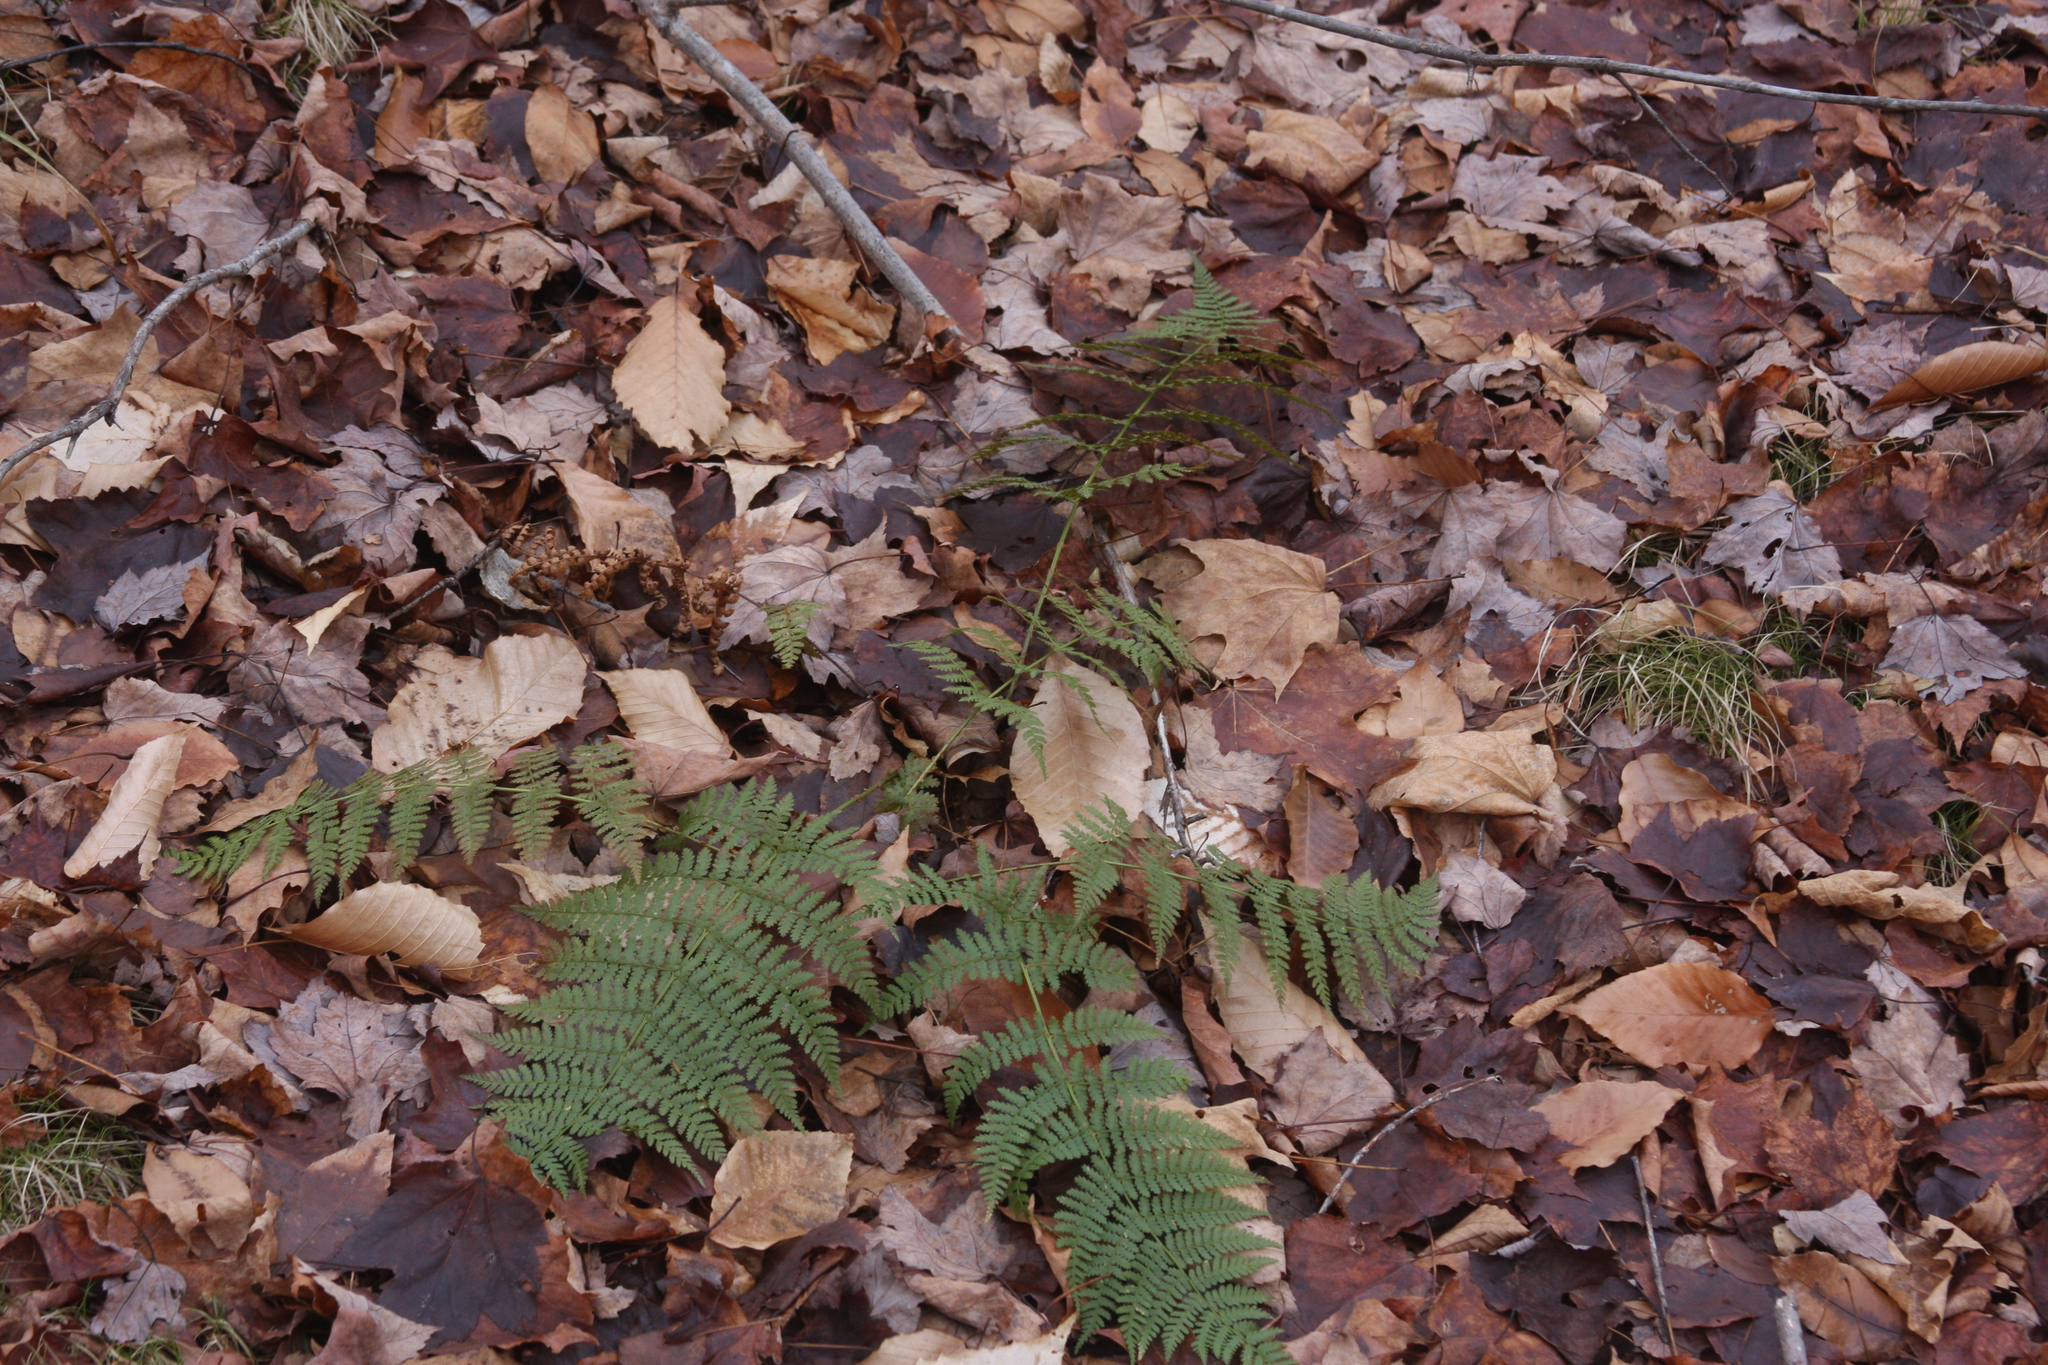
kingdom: Plantae
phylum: Tracheophyta
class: Polypodiopsida
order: Polypodiales
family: Dryopteridaceae
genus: Dryopteris
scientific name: Dryopteris intermedia
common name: Evergreen wood fern
